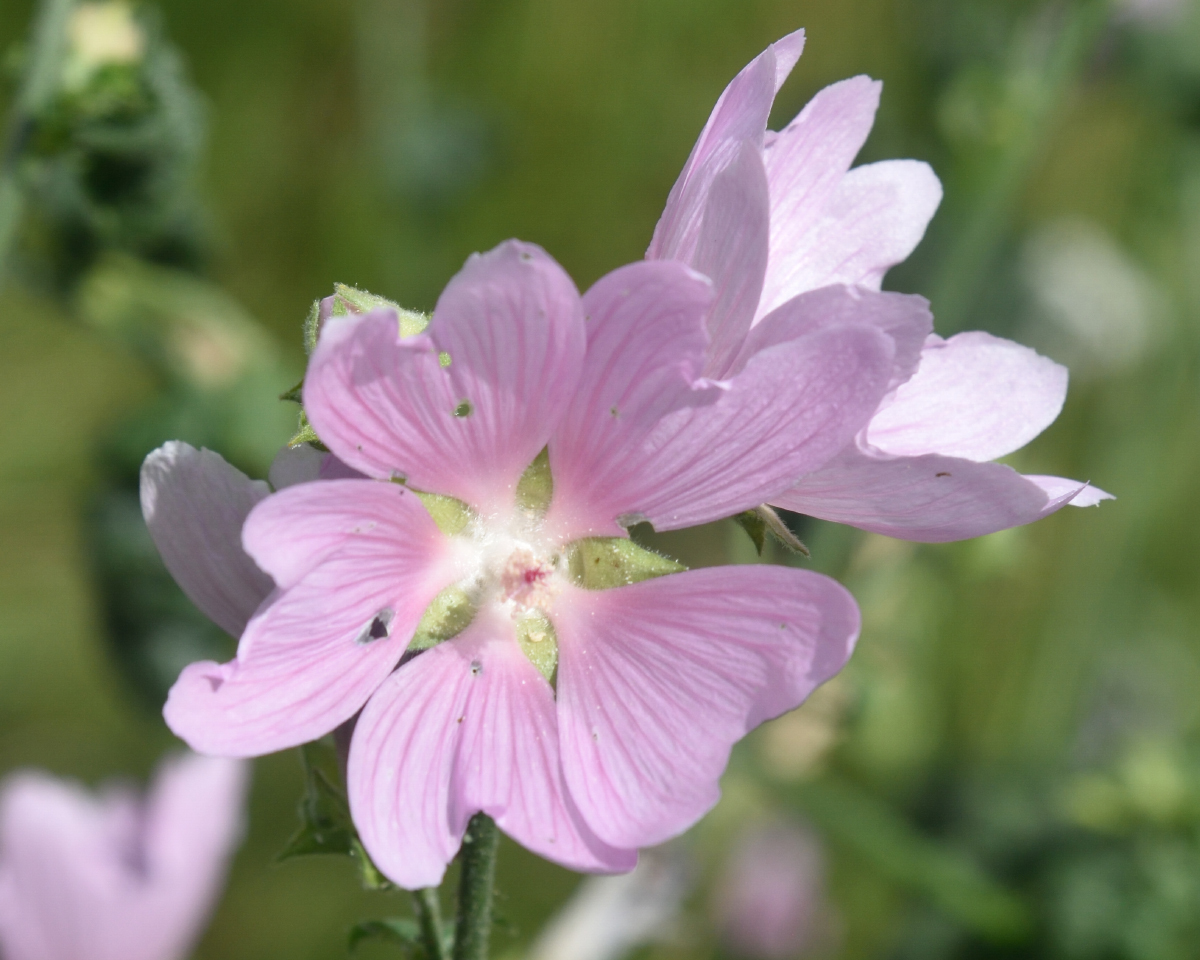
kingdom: Plantae
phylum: Tracheophyta
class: Magnoliopsida
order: Malvales
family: Malvaceae
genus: Malva
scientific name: Malva thuringiaca
